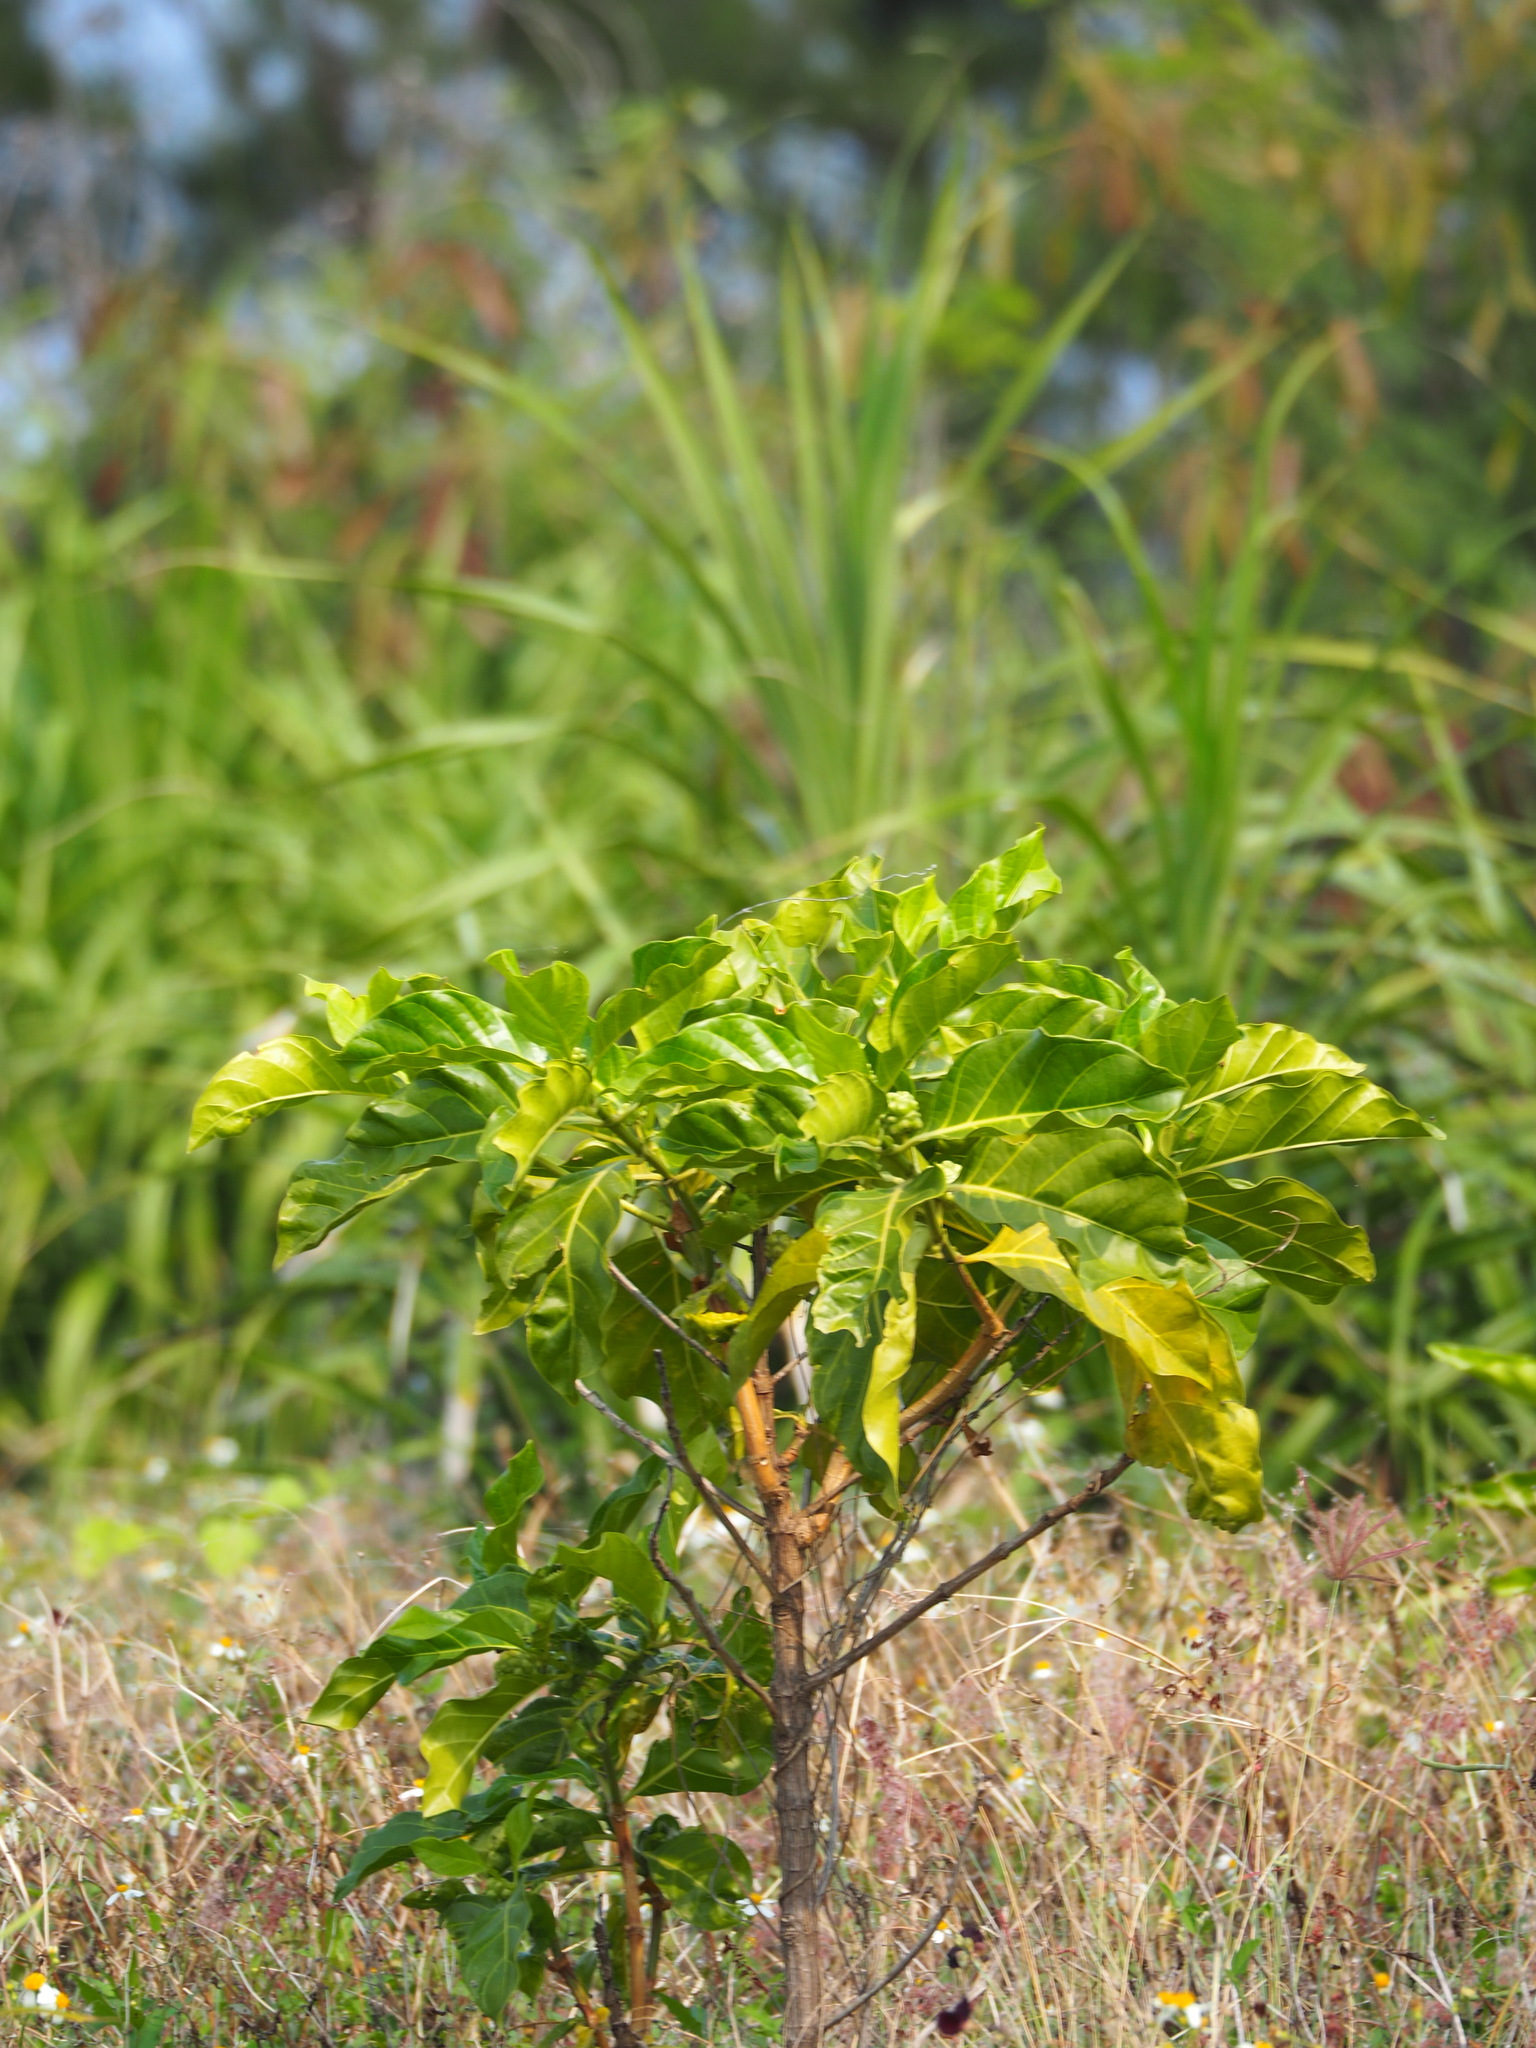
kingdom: Plantae
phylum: Tracheophyta
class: Magnoliopsida
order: Gentianales
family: Rubiaceae
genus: Morinda
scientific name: Morinda citrifolia
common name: Indian-mulberry
